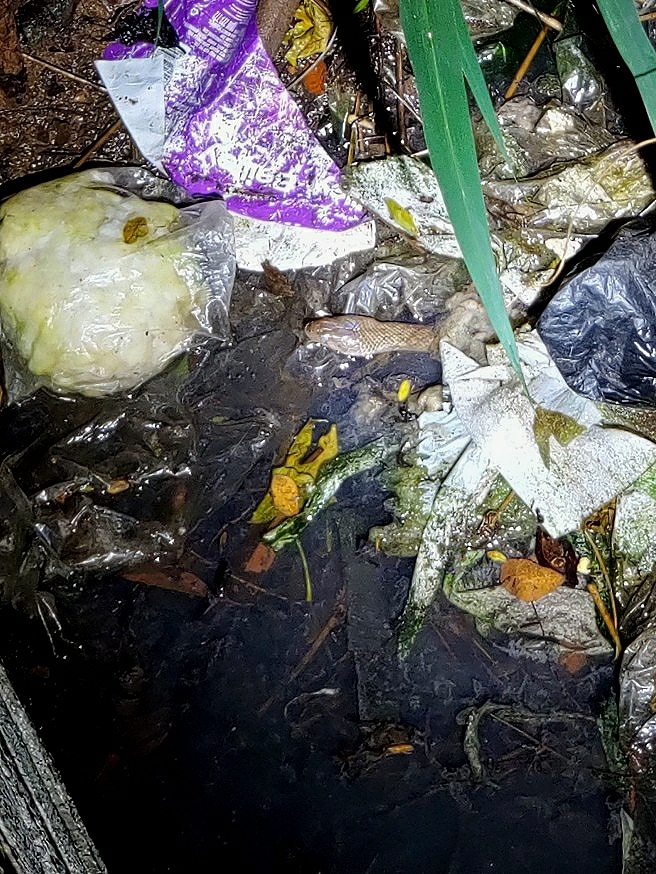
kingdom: Animalia
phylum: Chordata
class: Squamata
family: Colubridae
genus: Fowlea
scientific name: Fowlea piscator
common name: Asiatic water snake
